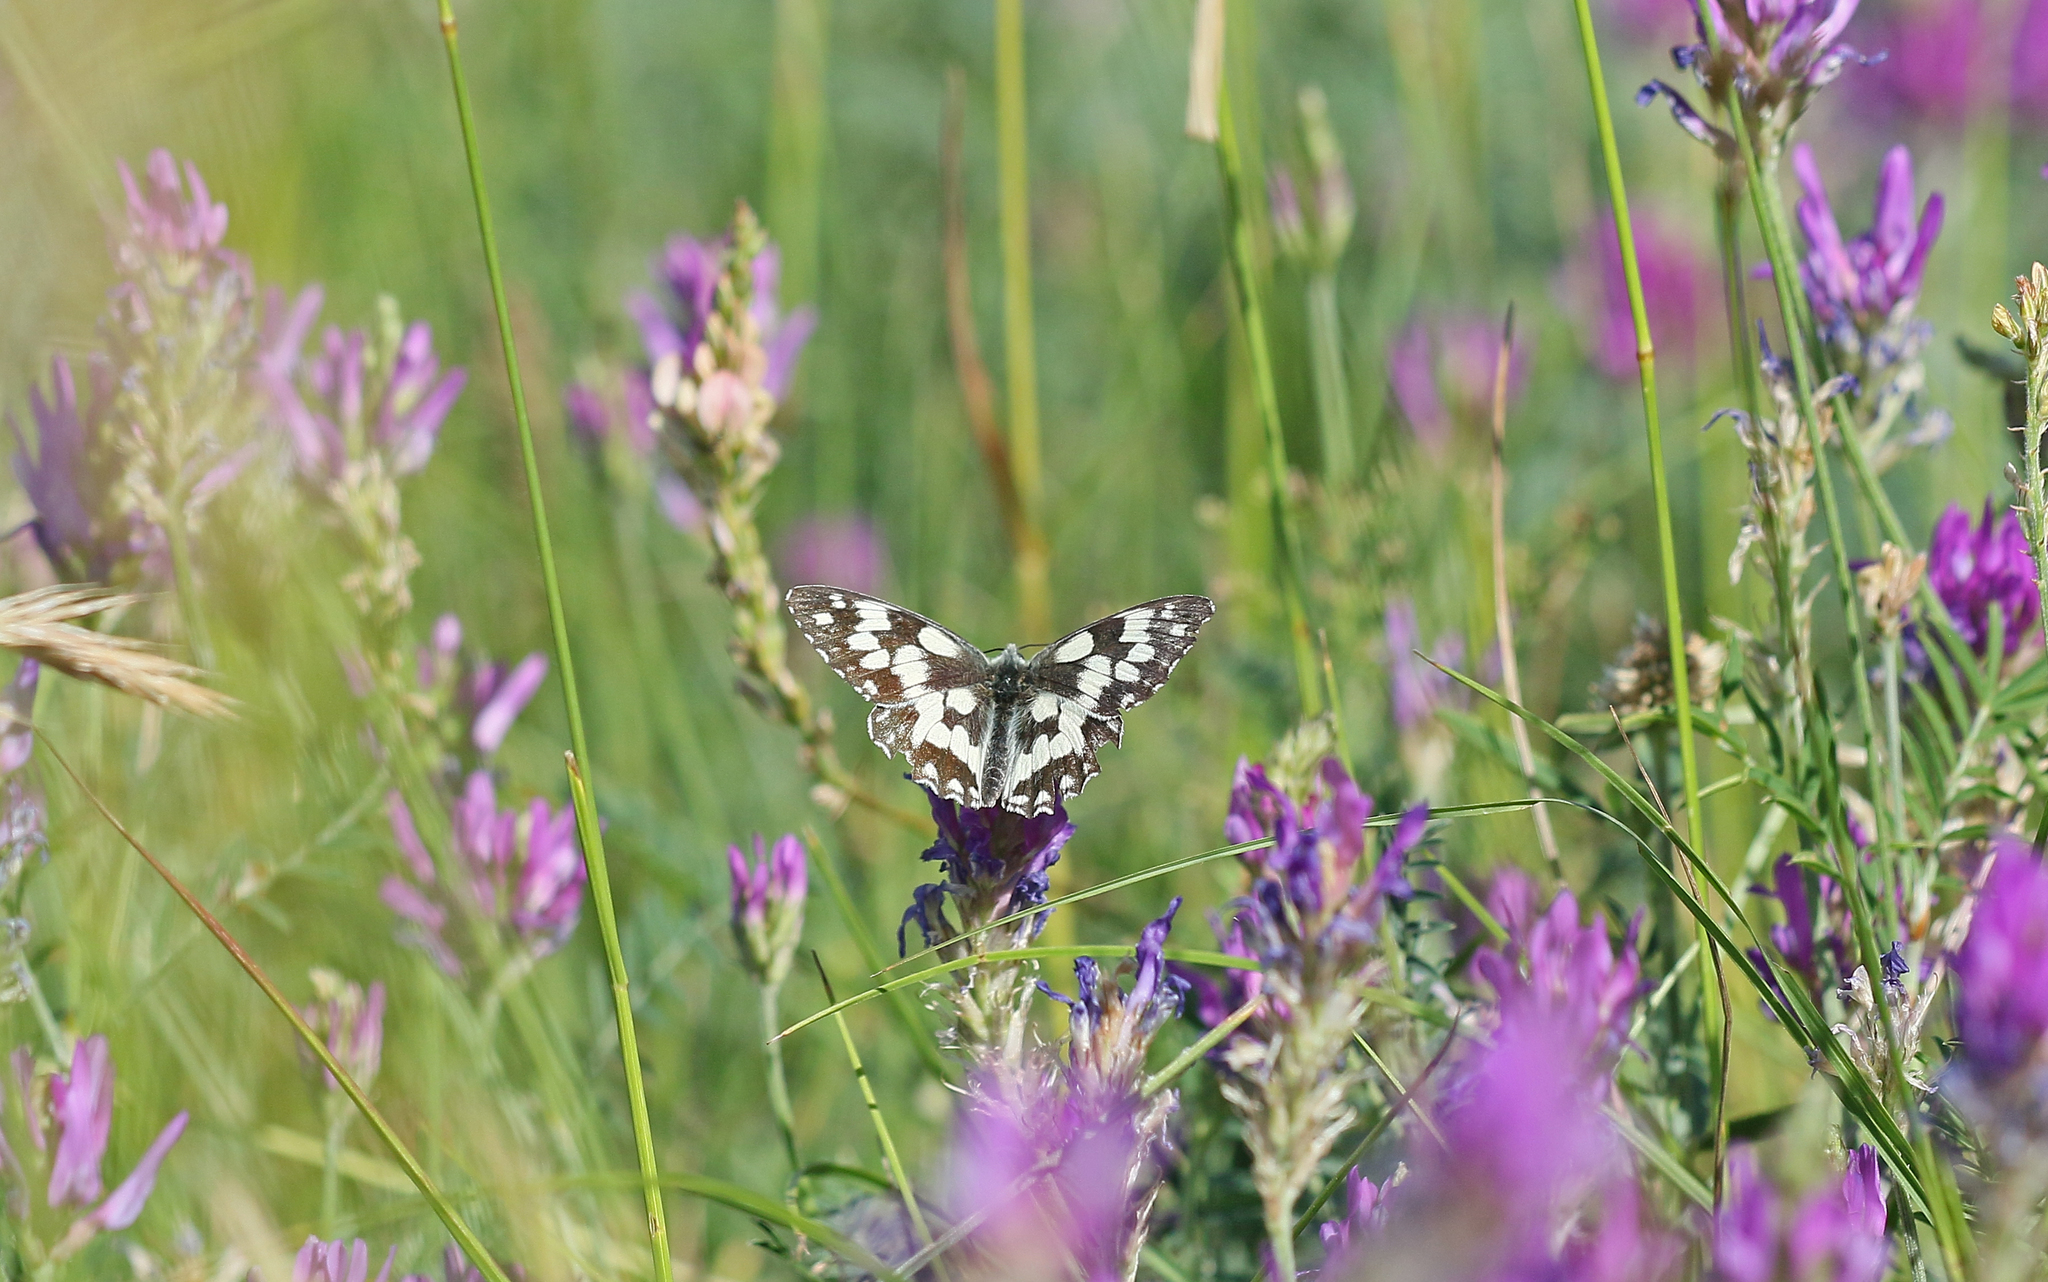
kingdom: Animalia
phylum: Arthropoda
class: Insecta
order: Lepidoptera
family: Nymphalidae
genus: Melanargia
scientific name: Melanargia galathea
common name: Marbled white
